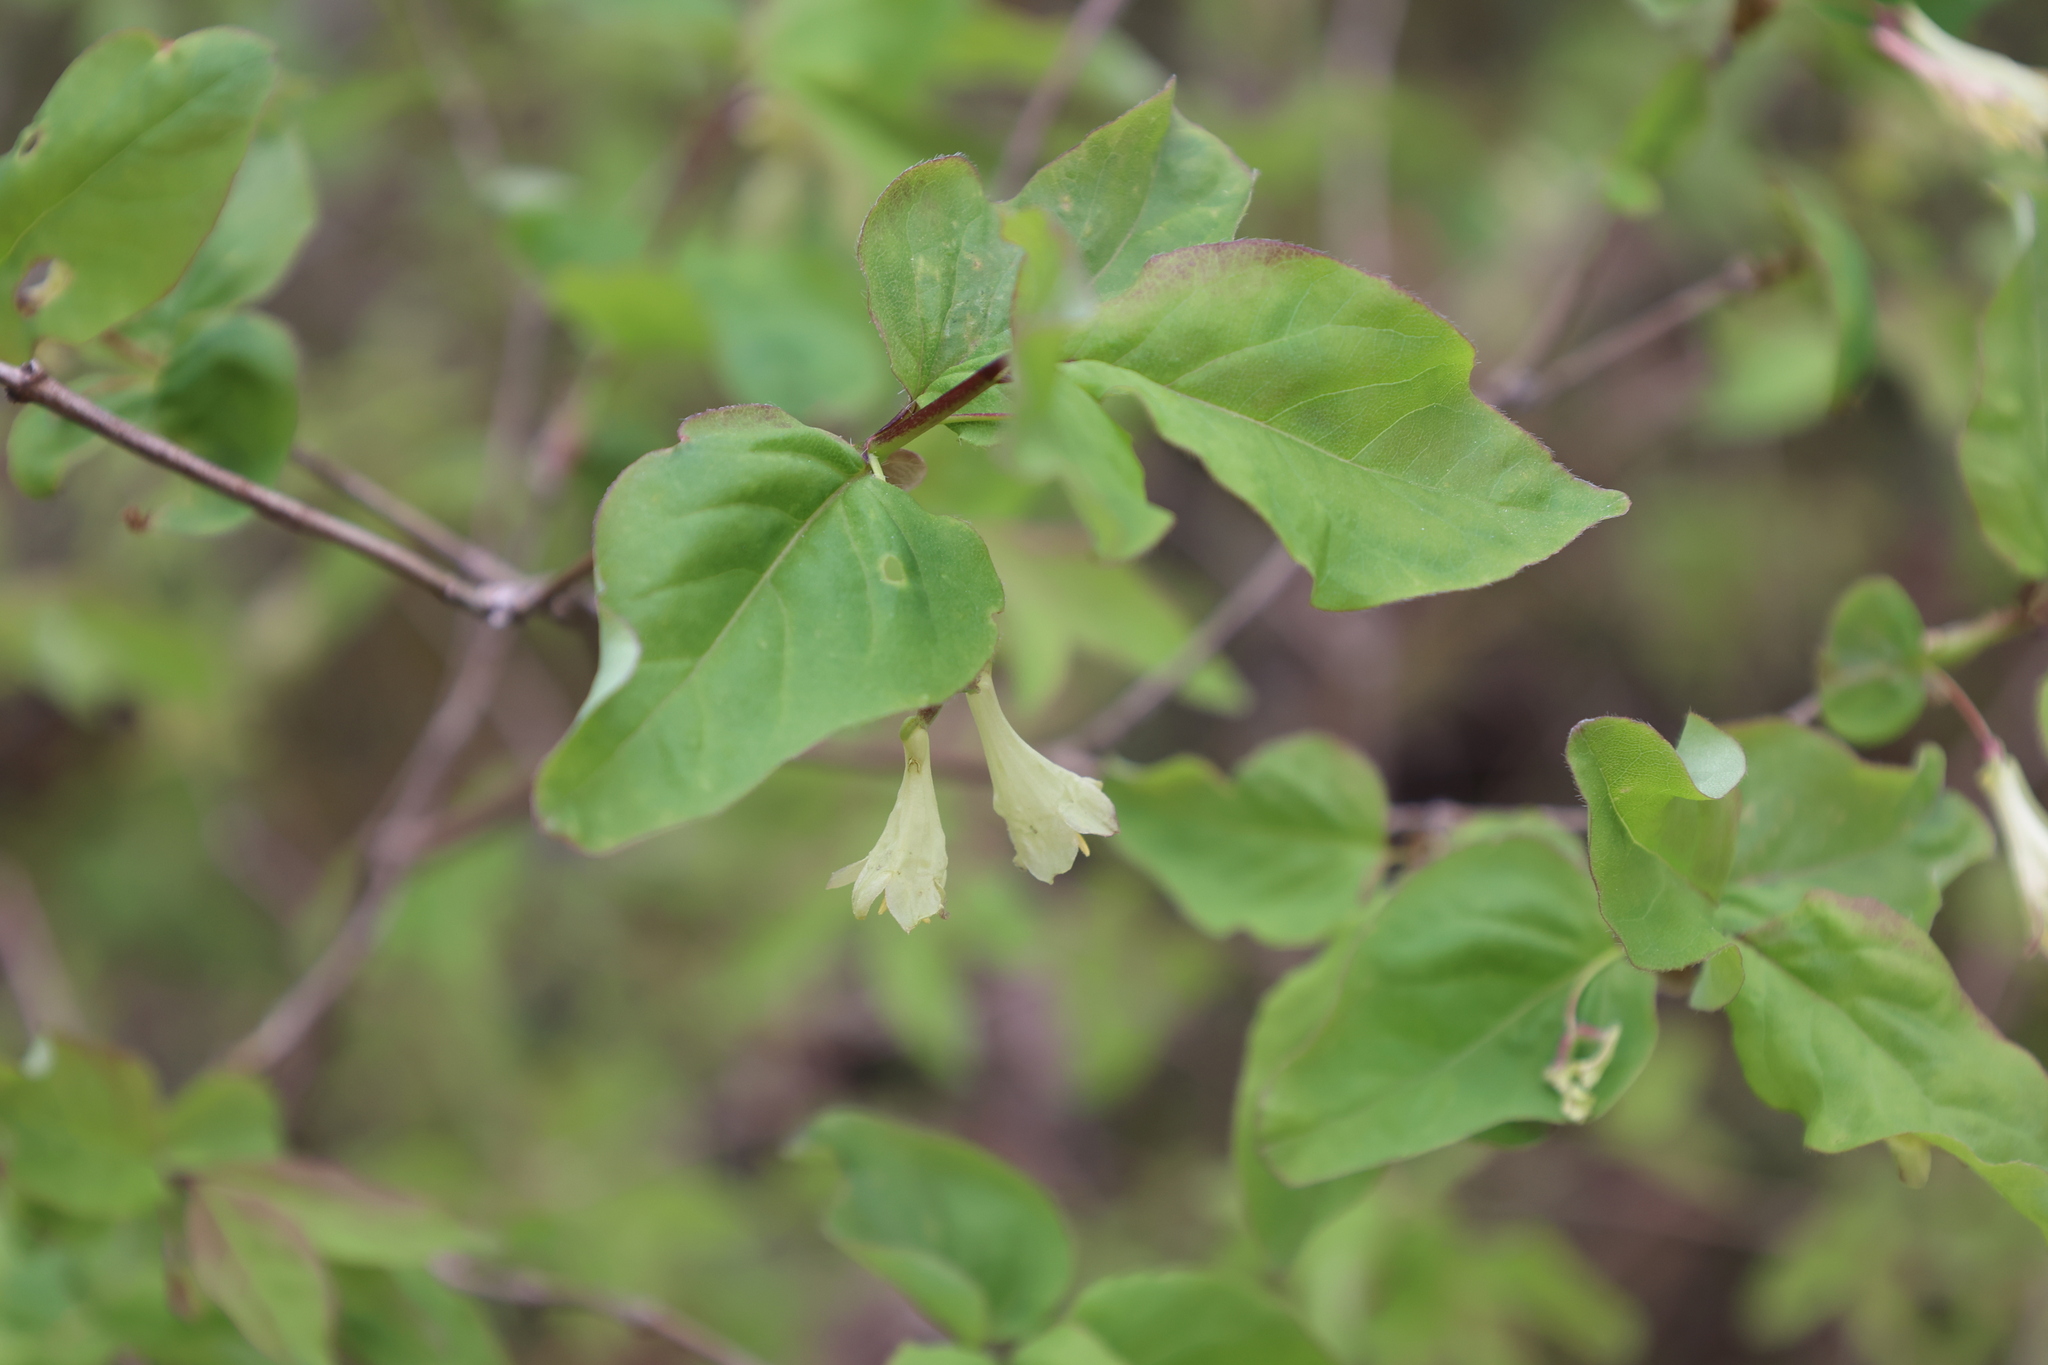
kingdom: Plantae
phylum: Tracheophyta
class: Magnoliopsida
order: Dipsacales
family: Caprifoliaceae
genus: Lonicera
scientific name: Lonicera canadensis
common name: American fly-honeysuckle
